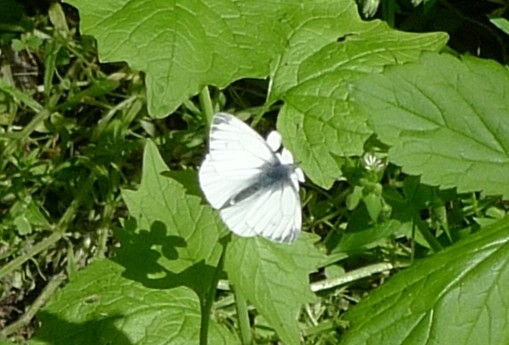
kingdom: Animalia
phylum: Arthropoda
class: Insecta
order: Lepidoptera
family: Pieridae
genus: Pieris
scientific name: Pieris napi
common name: Green-veined white
